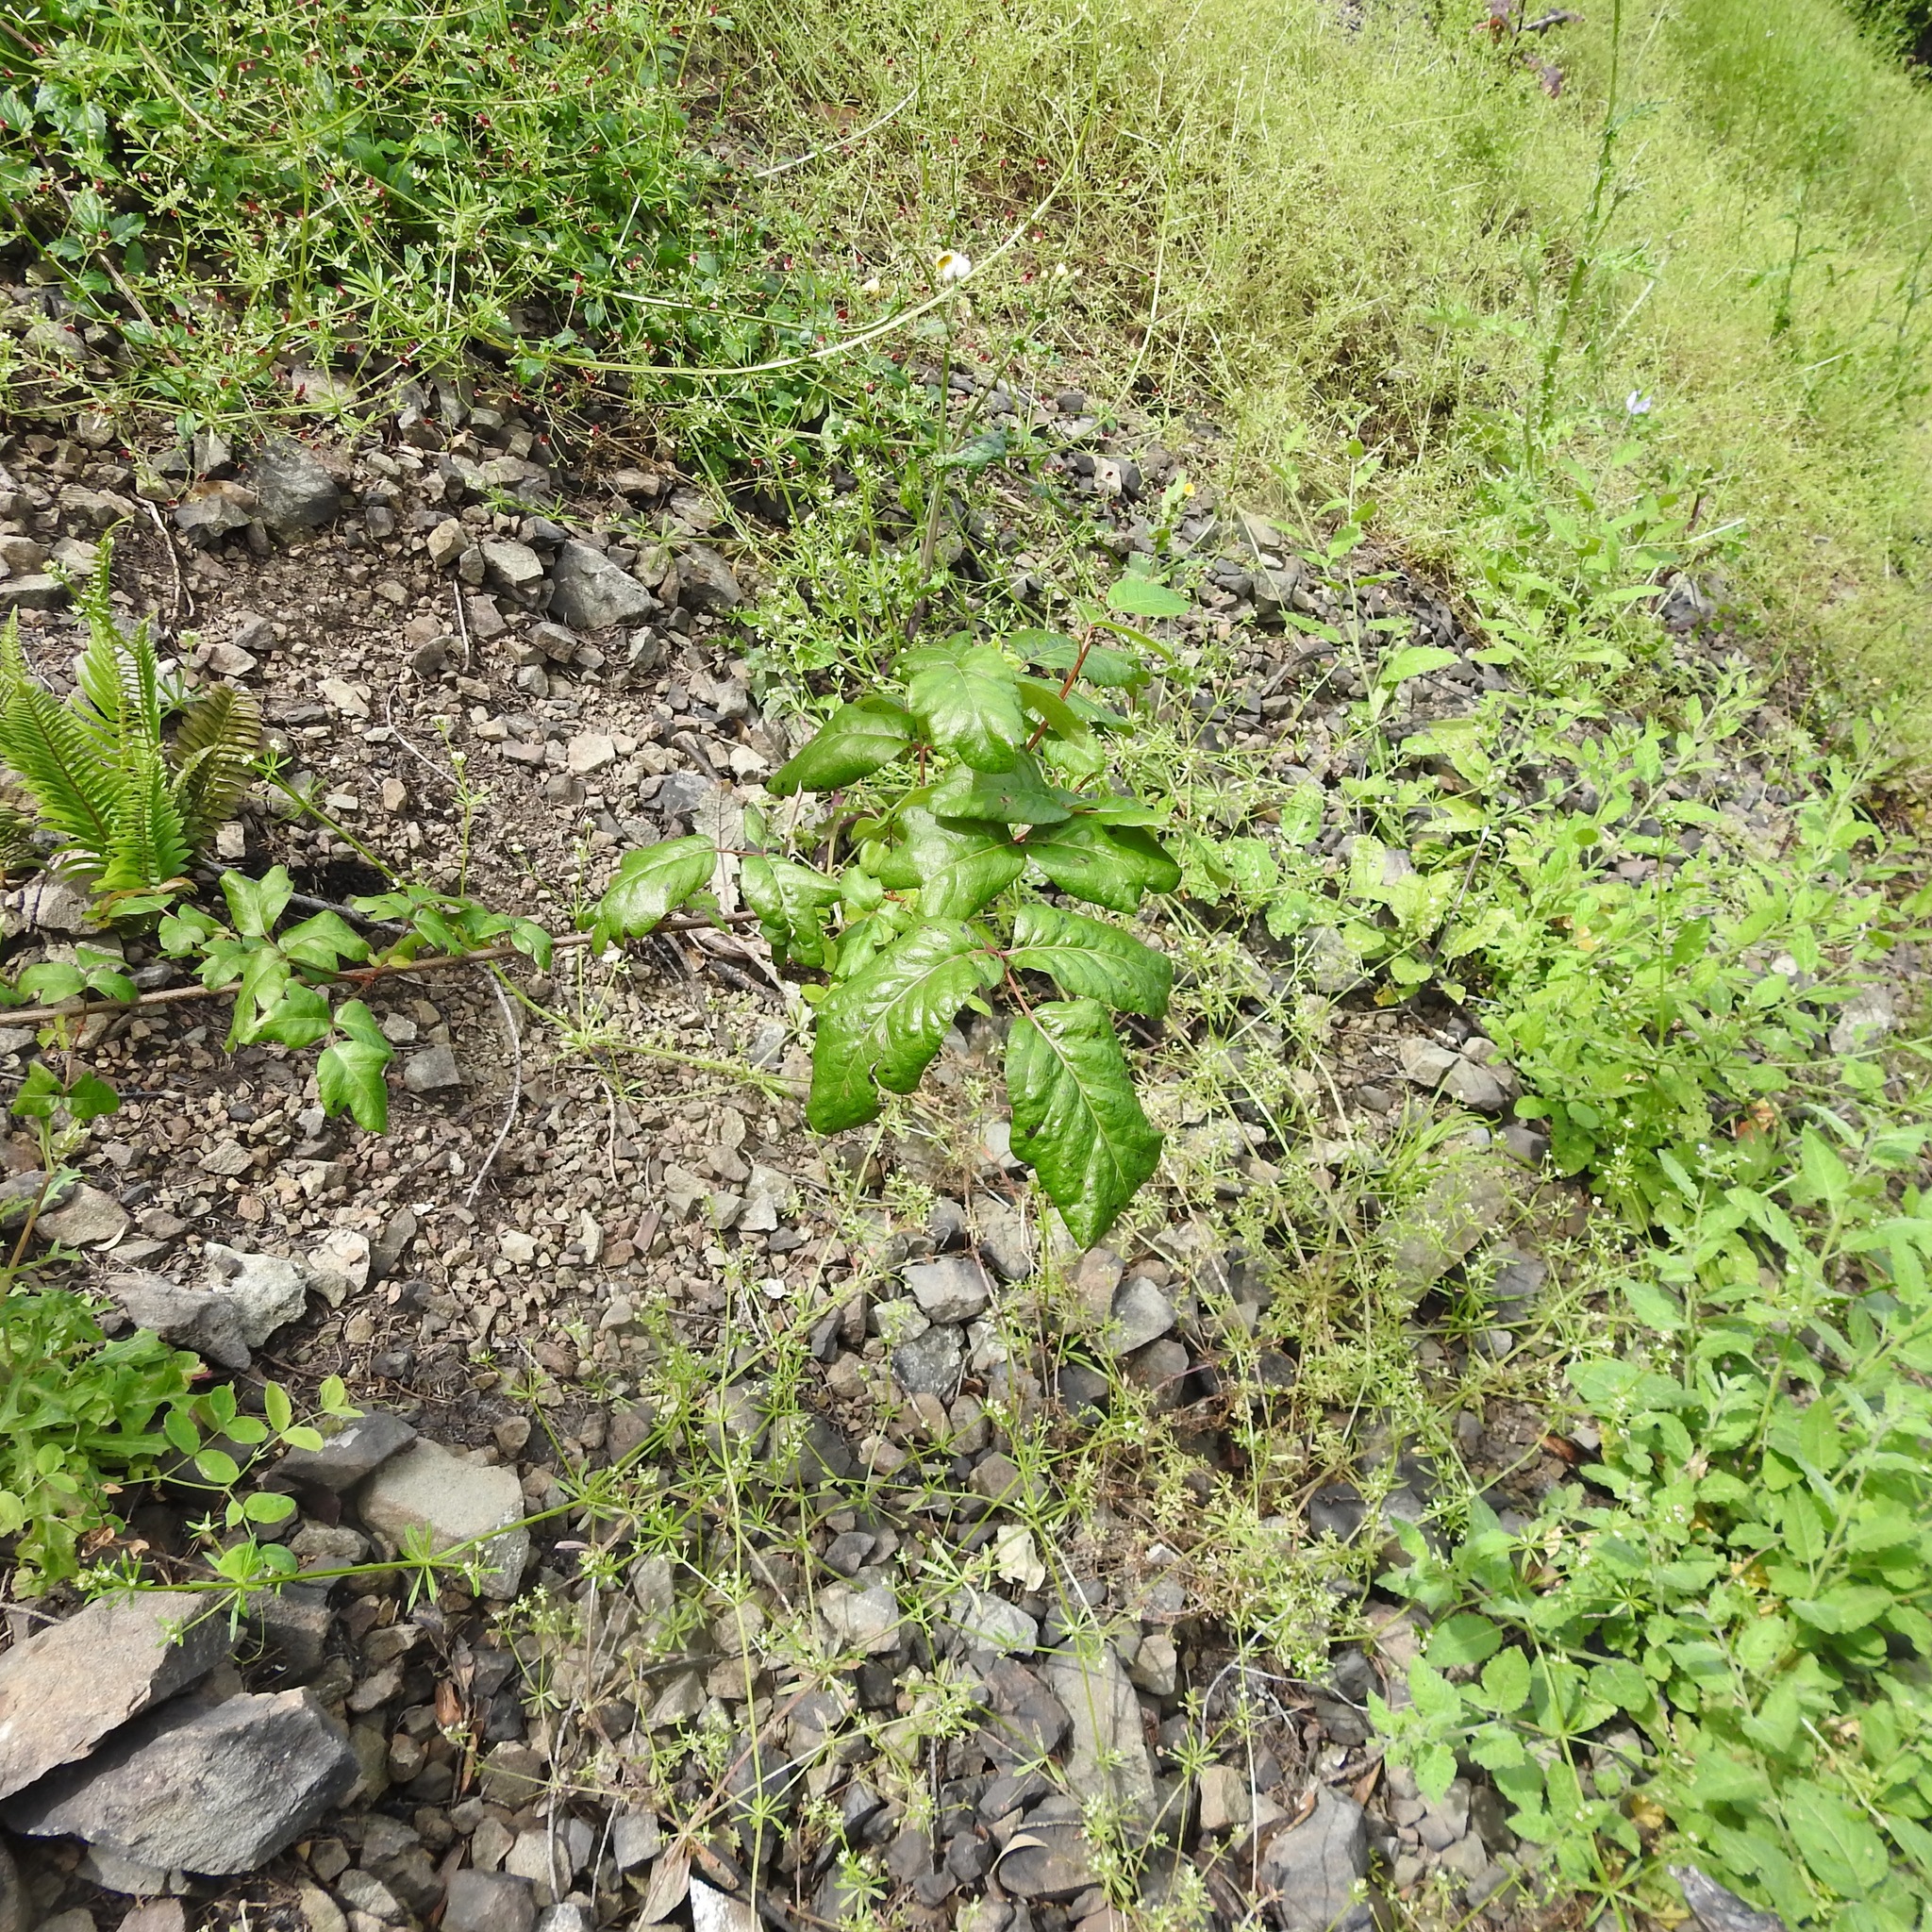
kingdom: Plantae
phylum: Tracheophyta
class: Magnoliopsida
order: Sapindales
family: Anacardiaceae
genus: Toxicodendron
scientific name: Toxicodendron diversilobum
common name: Pacific poison-oak
